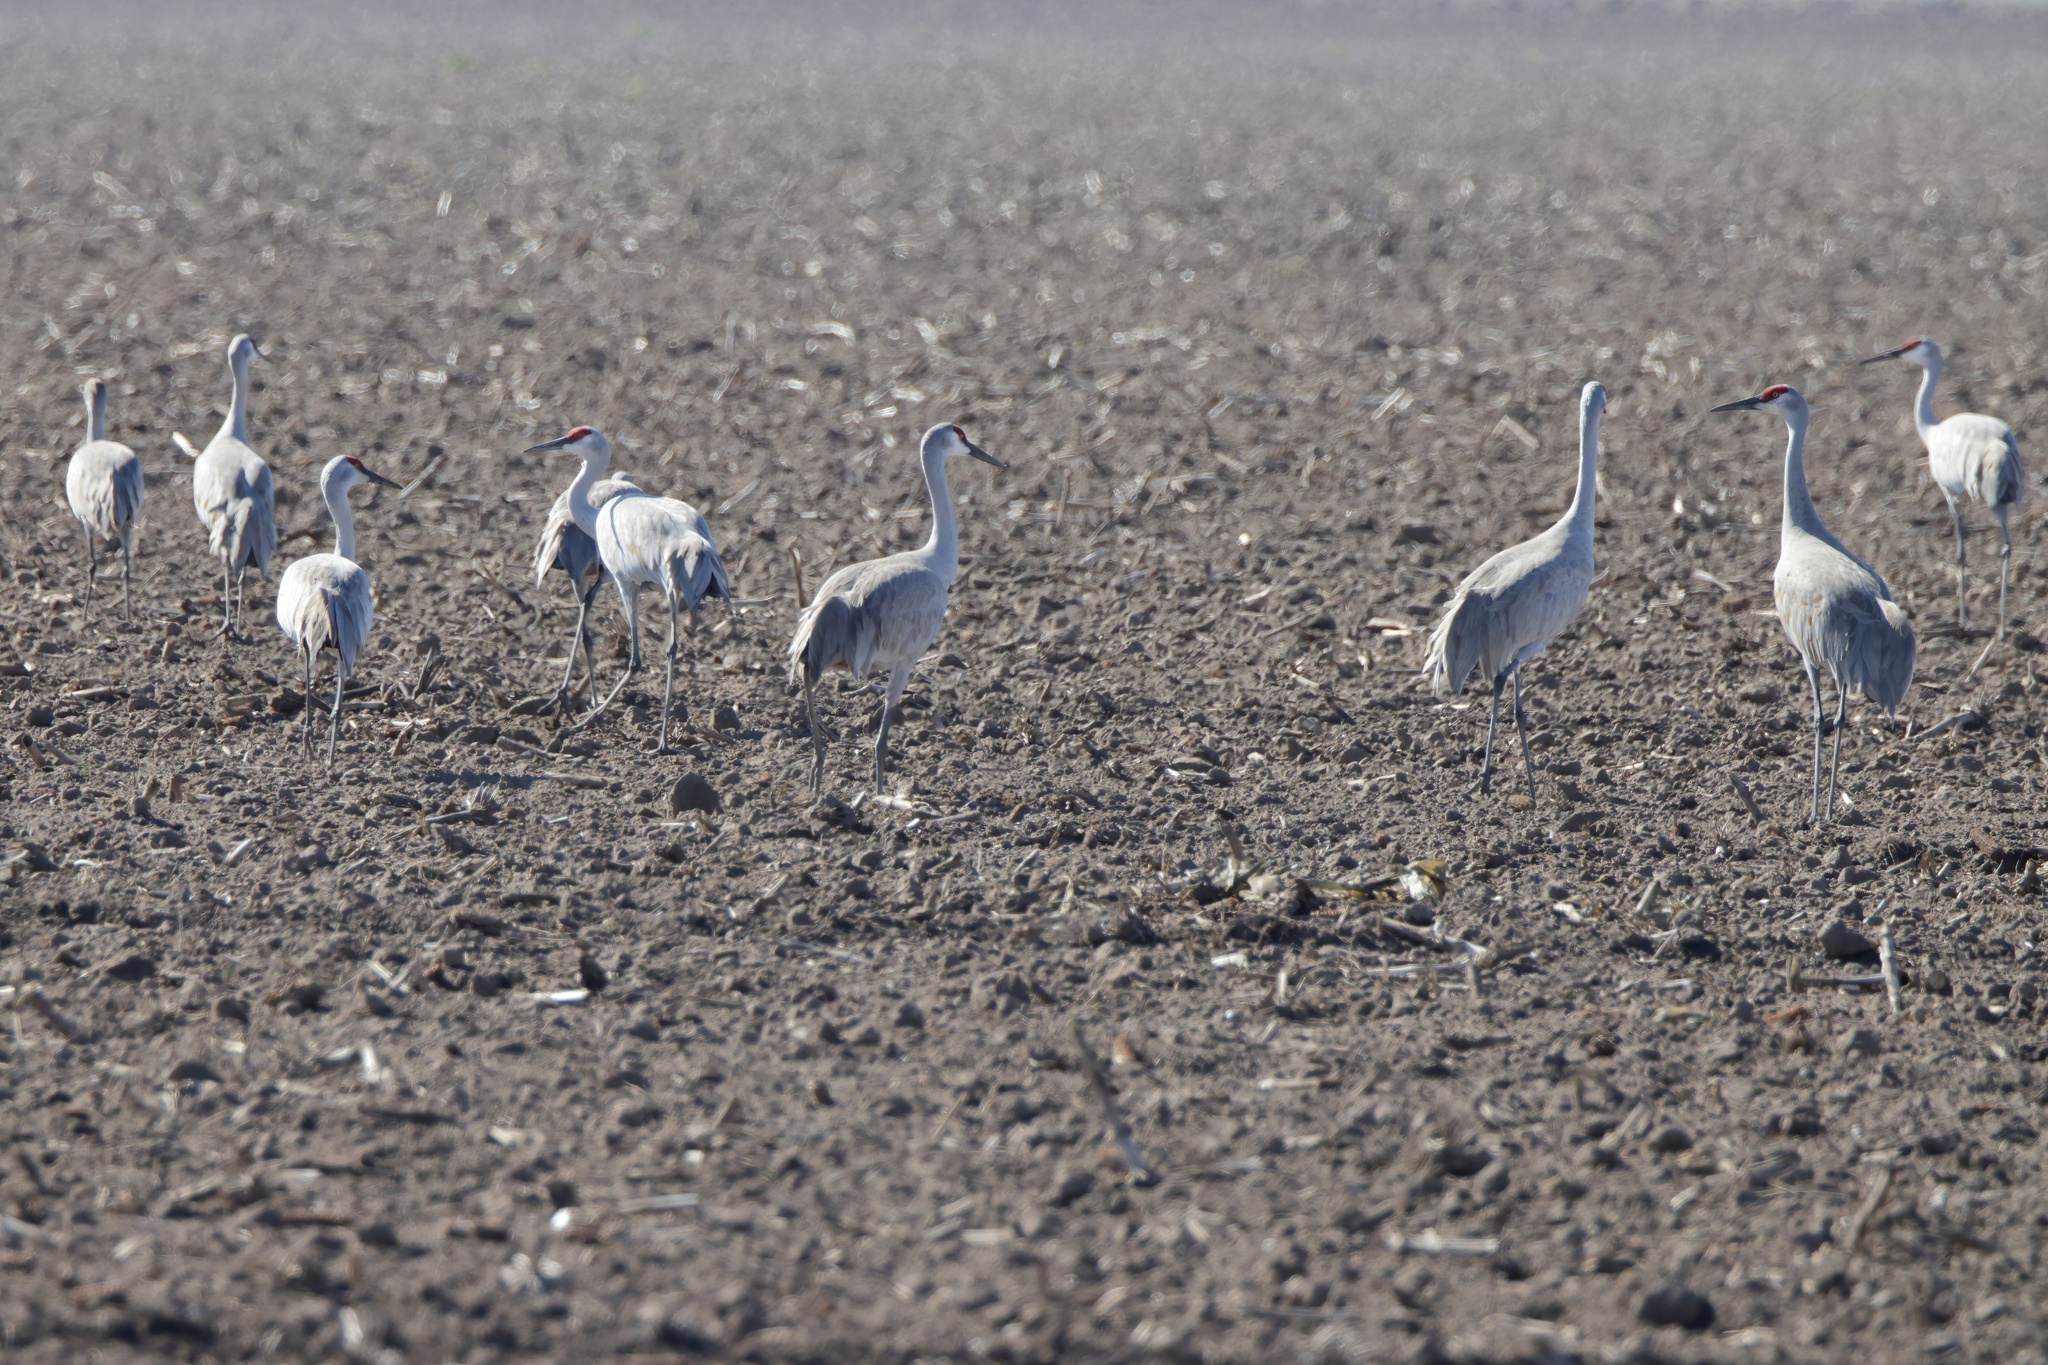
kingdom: Animalia
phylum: Chordata
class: Aves
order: Gruiformes
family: Gruidae
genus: Grus
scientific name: Grus canadensis
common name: Sandhill crane
